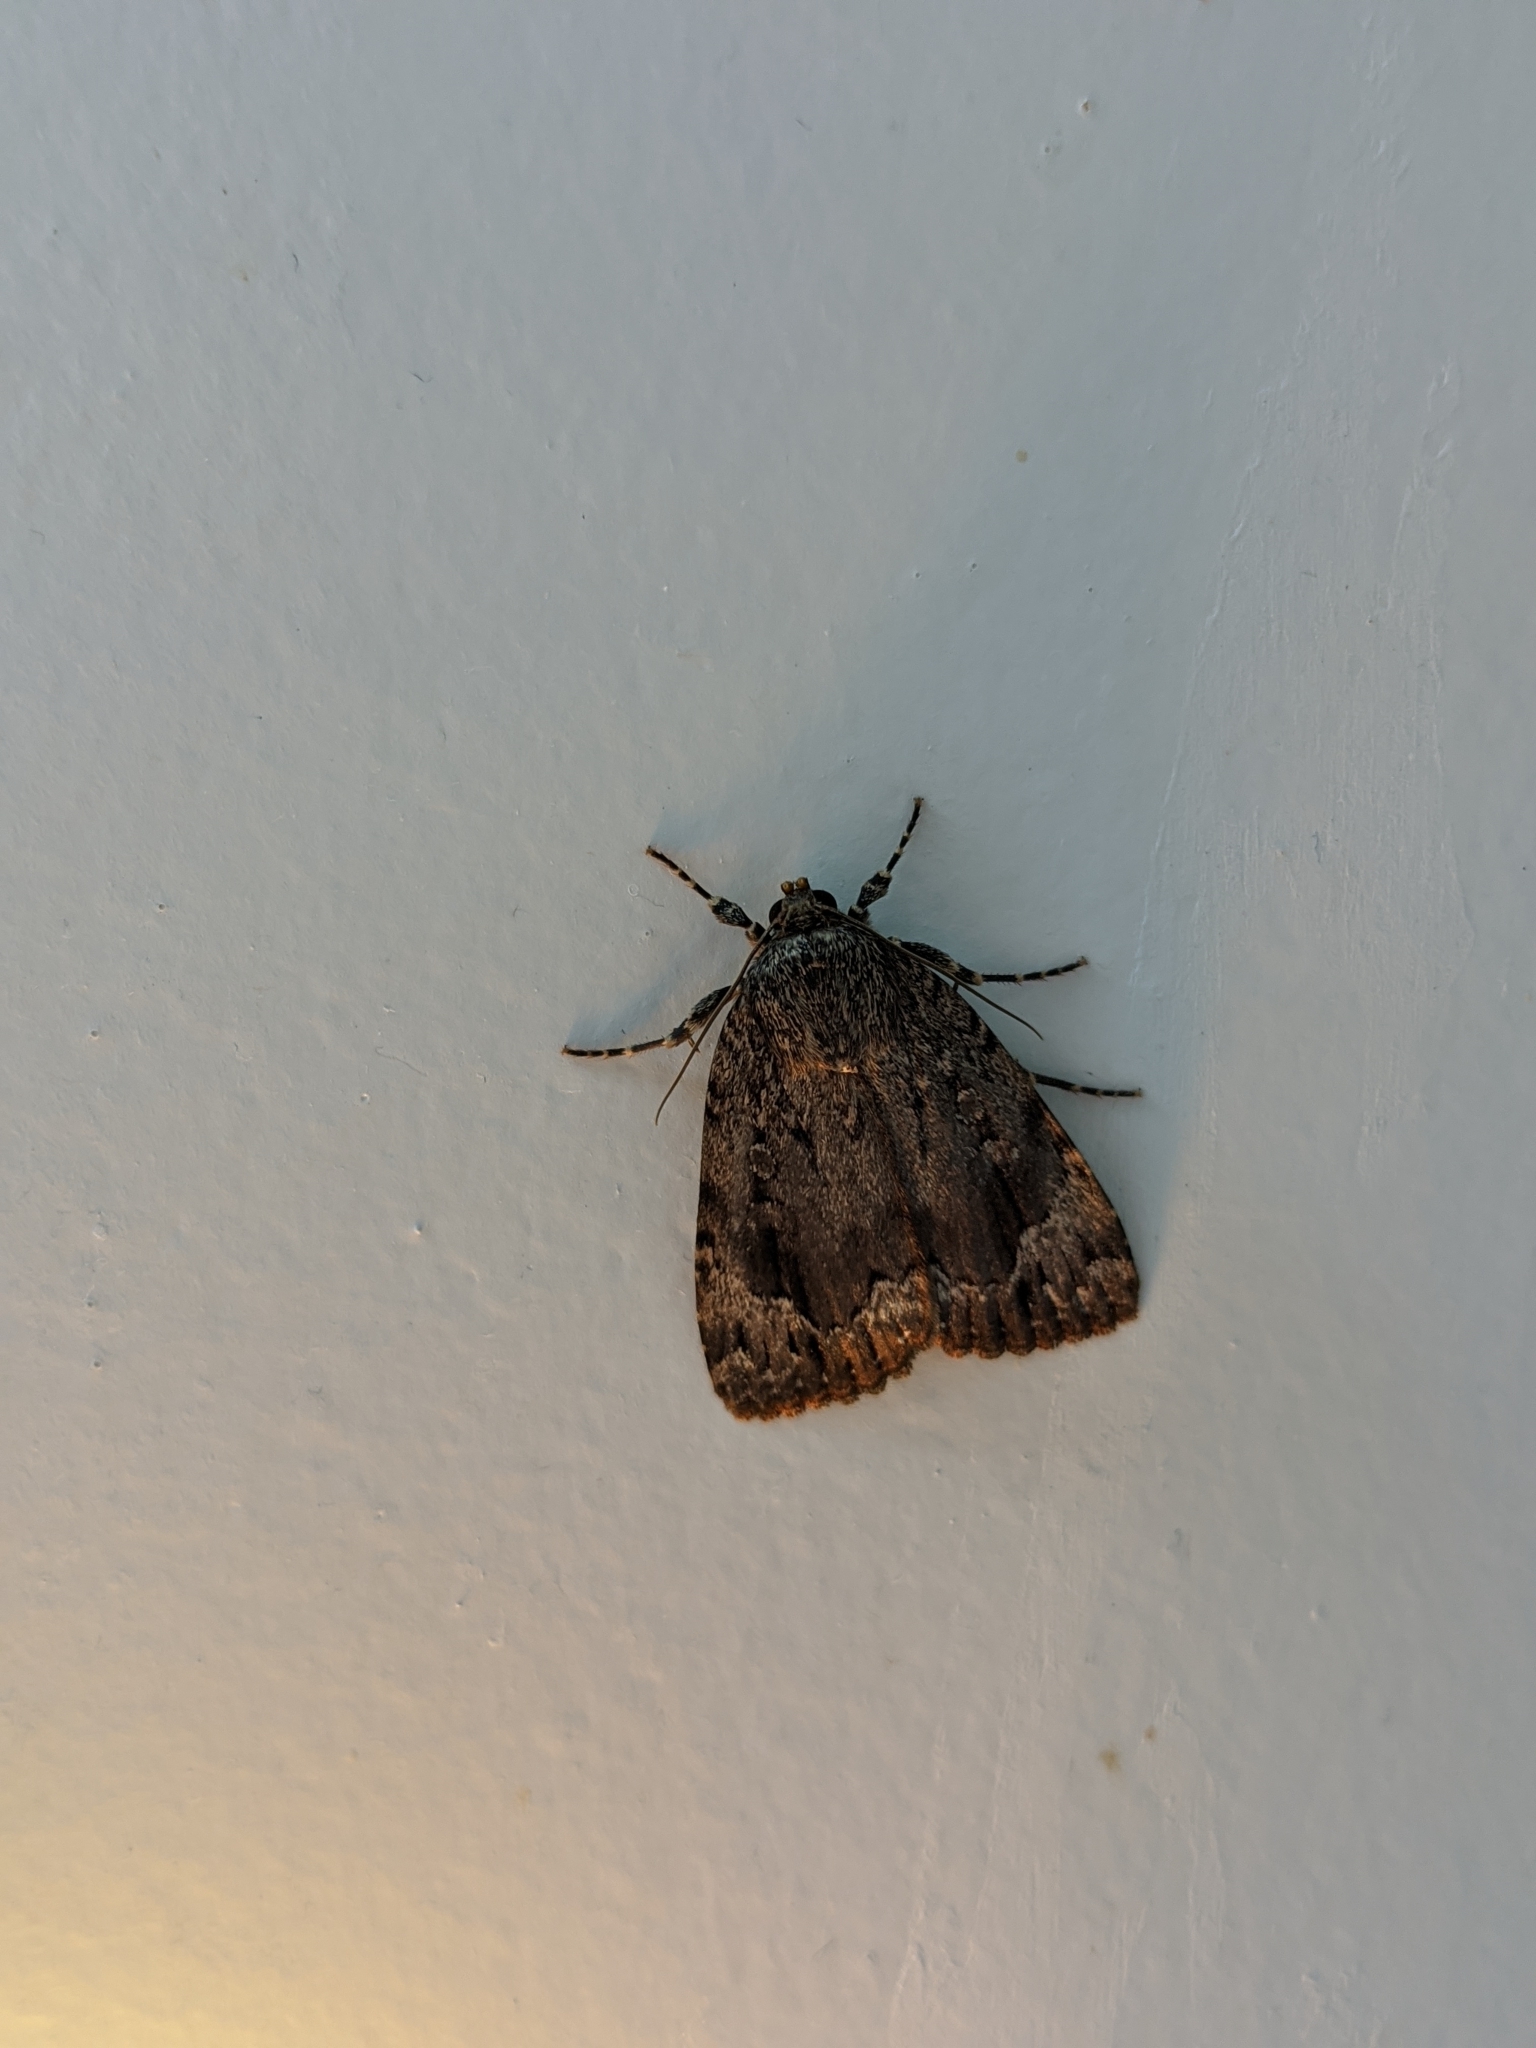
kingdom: Animalia
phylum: Arthropoda
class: Insecta
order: Lepidoptera
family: Noctuidae
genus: Amphipyra
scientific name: Amphipyra pyramidoides
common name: American copper underwing
